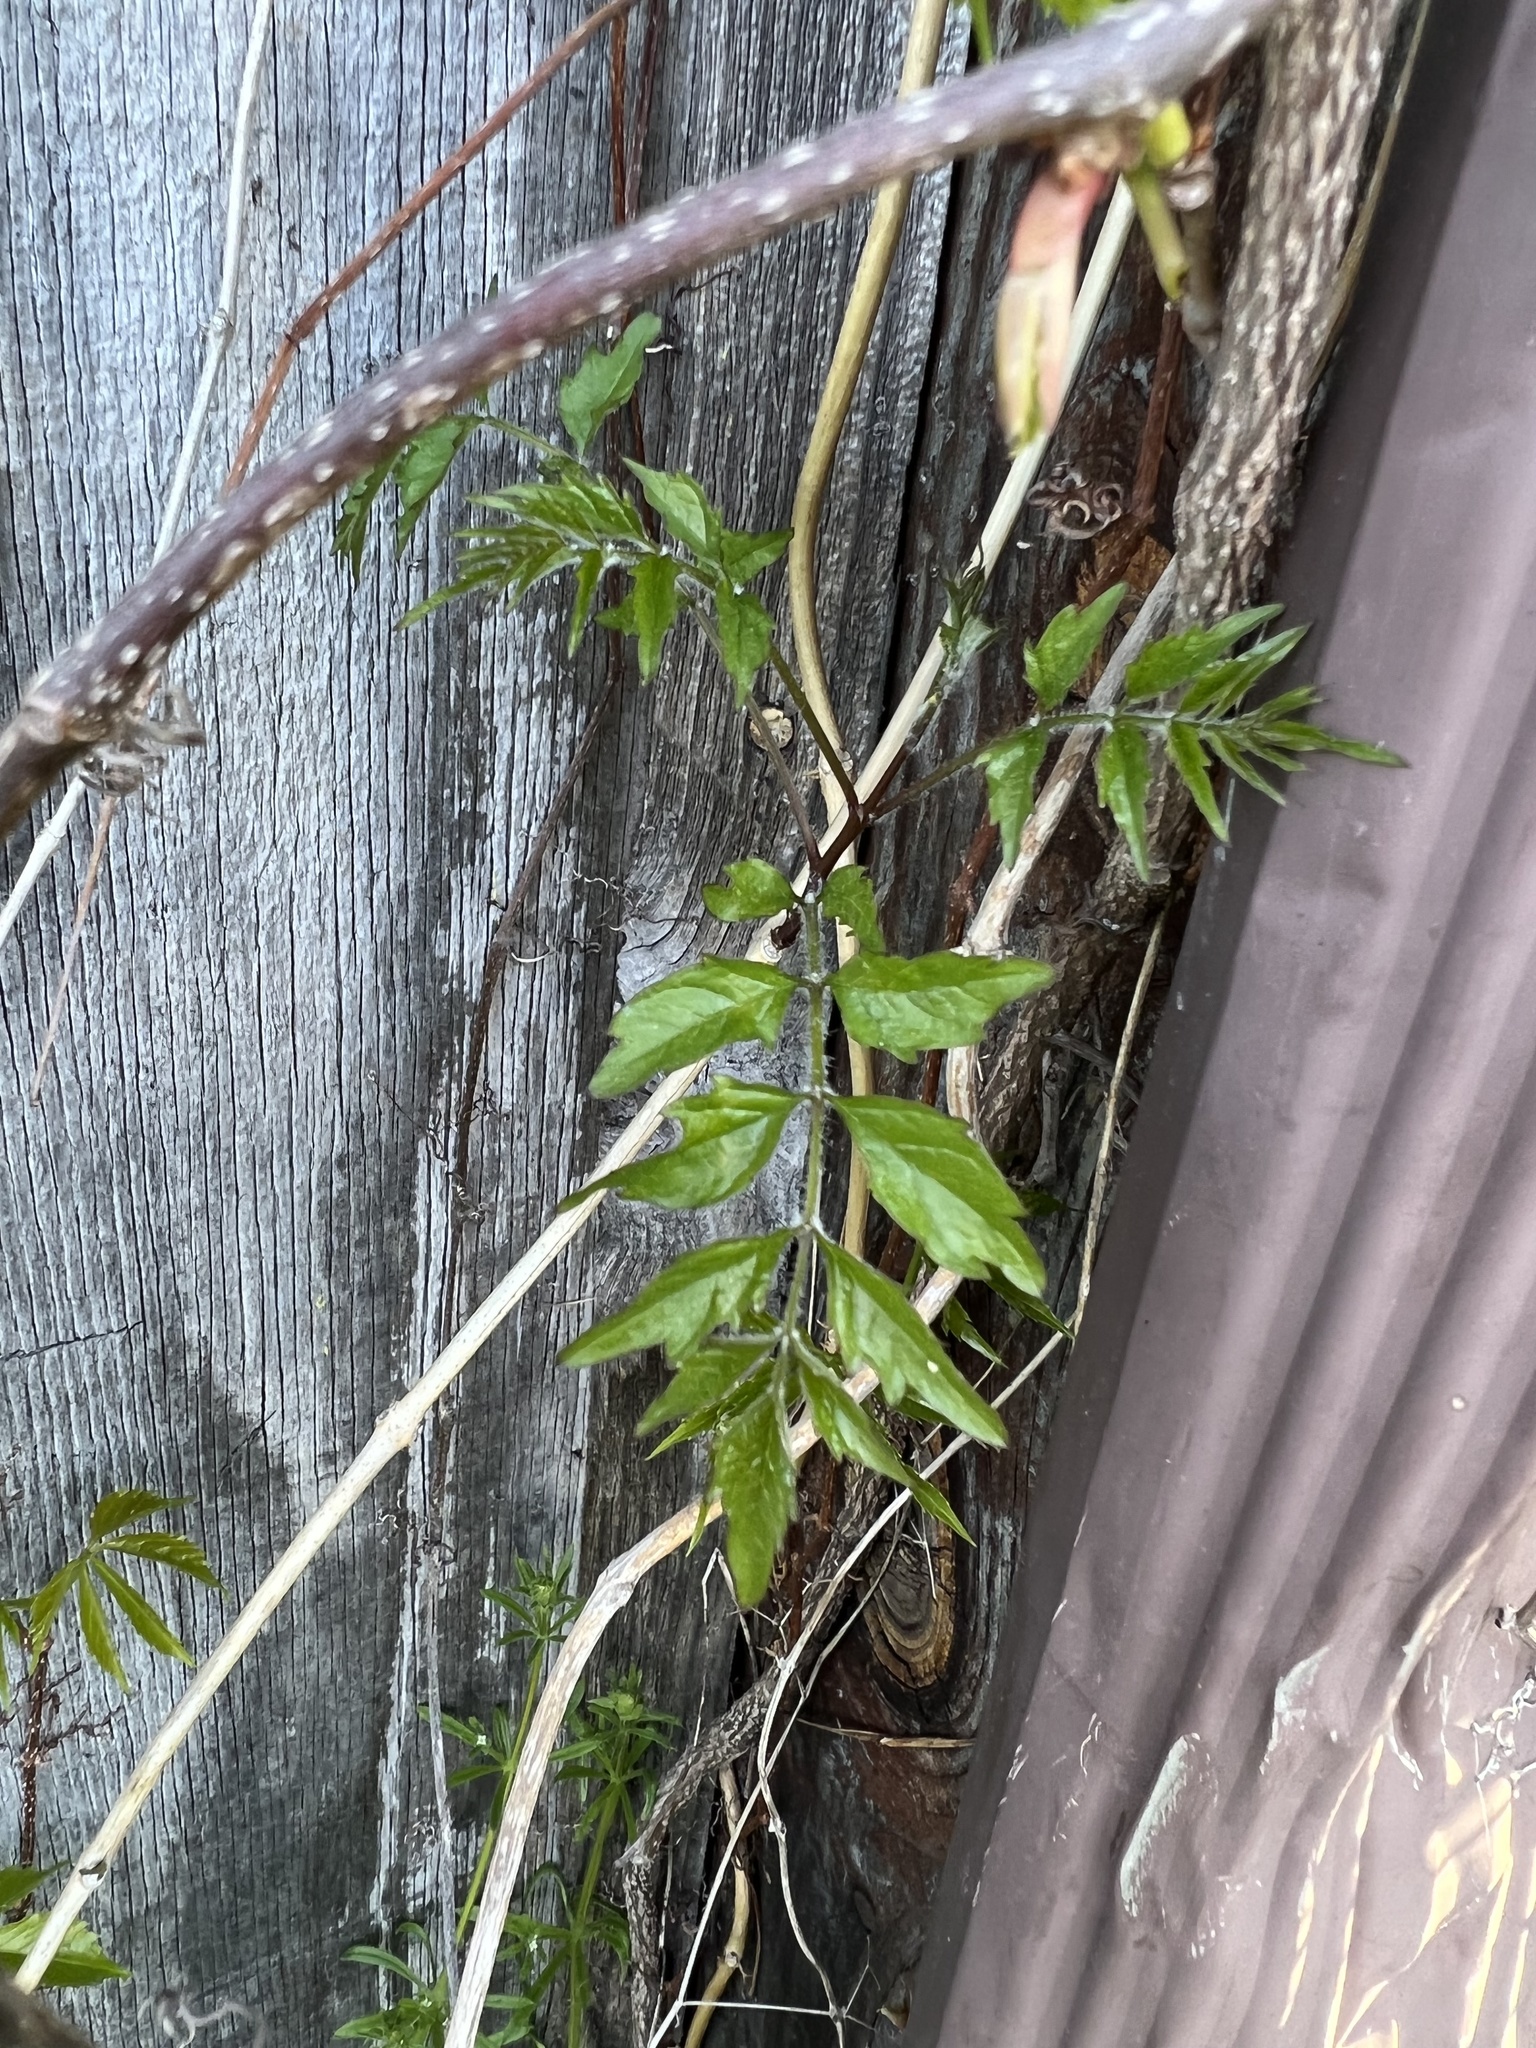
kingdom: Plantae
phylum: Tracheophyta
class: Magnoliopsida
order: Lamiales
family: Bignoniaceae
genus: Campsis
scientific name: Campsis radicans
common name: Trumpet-creeper
